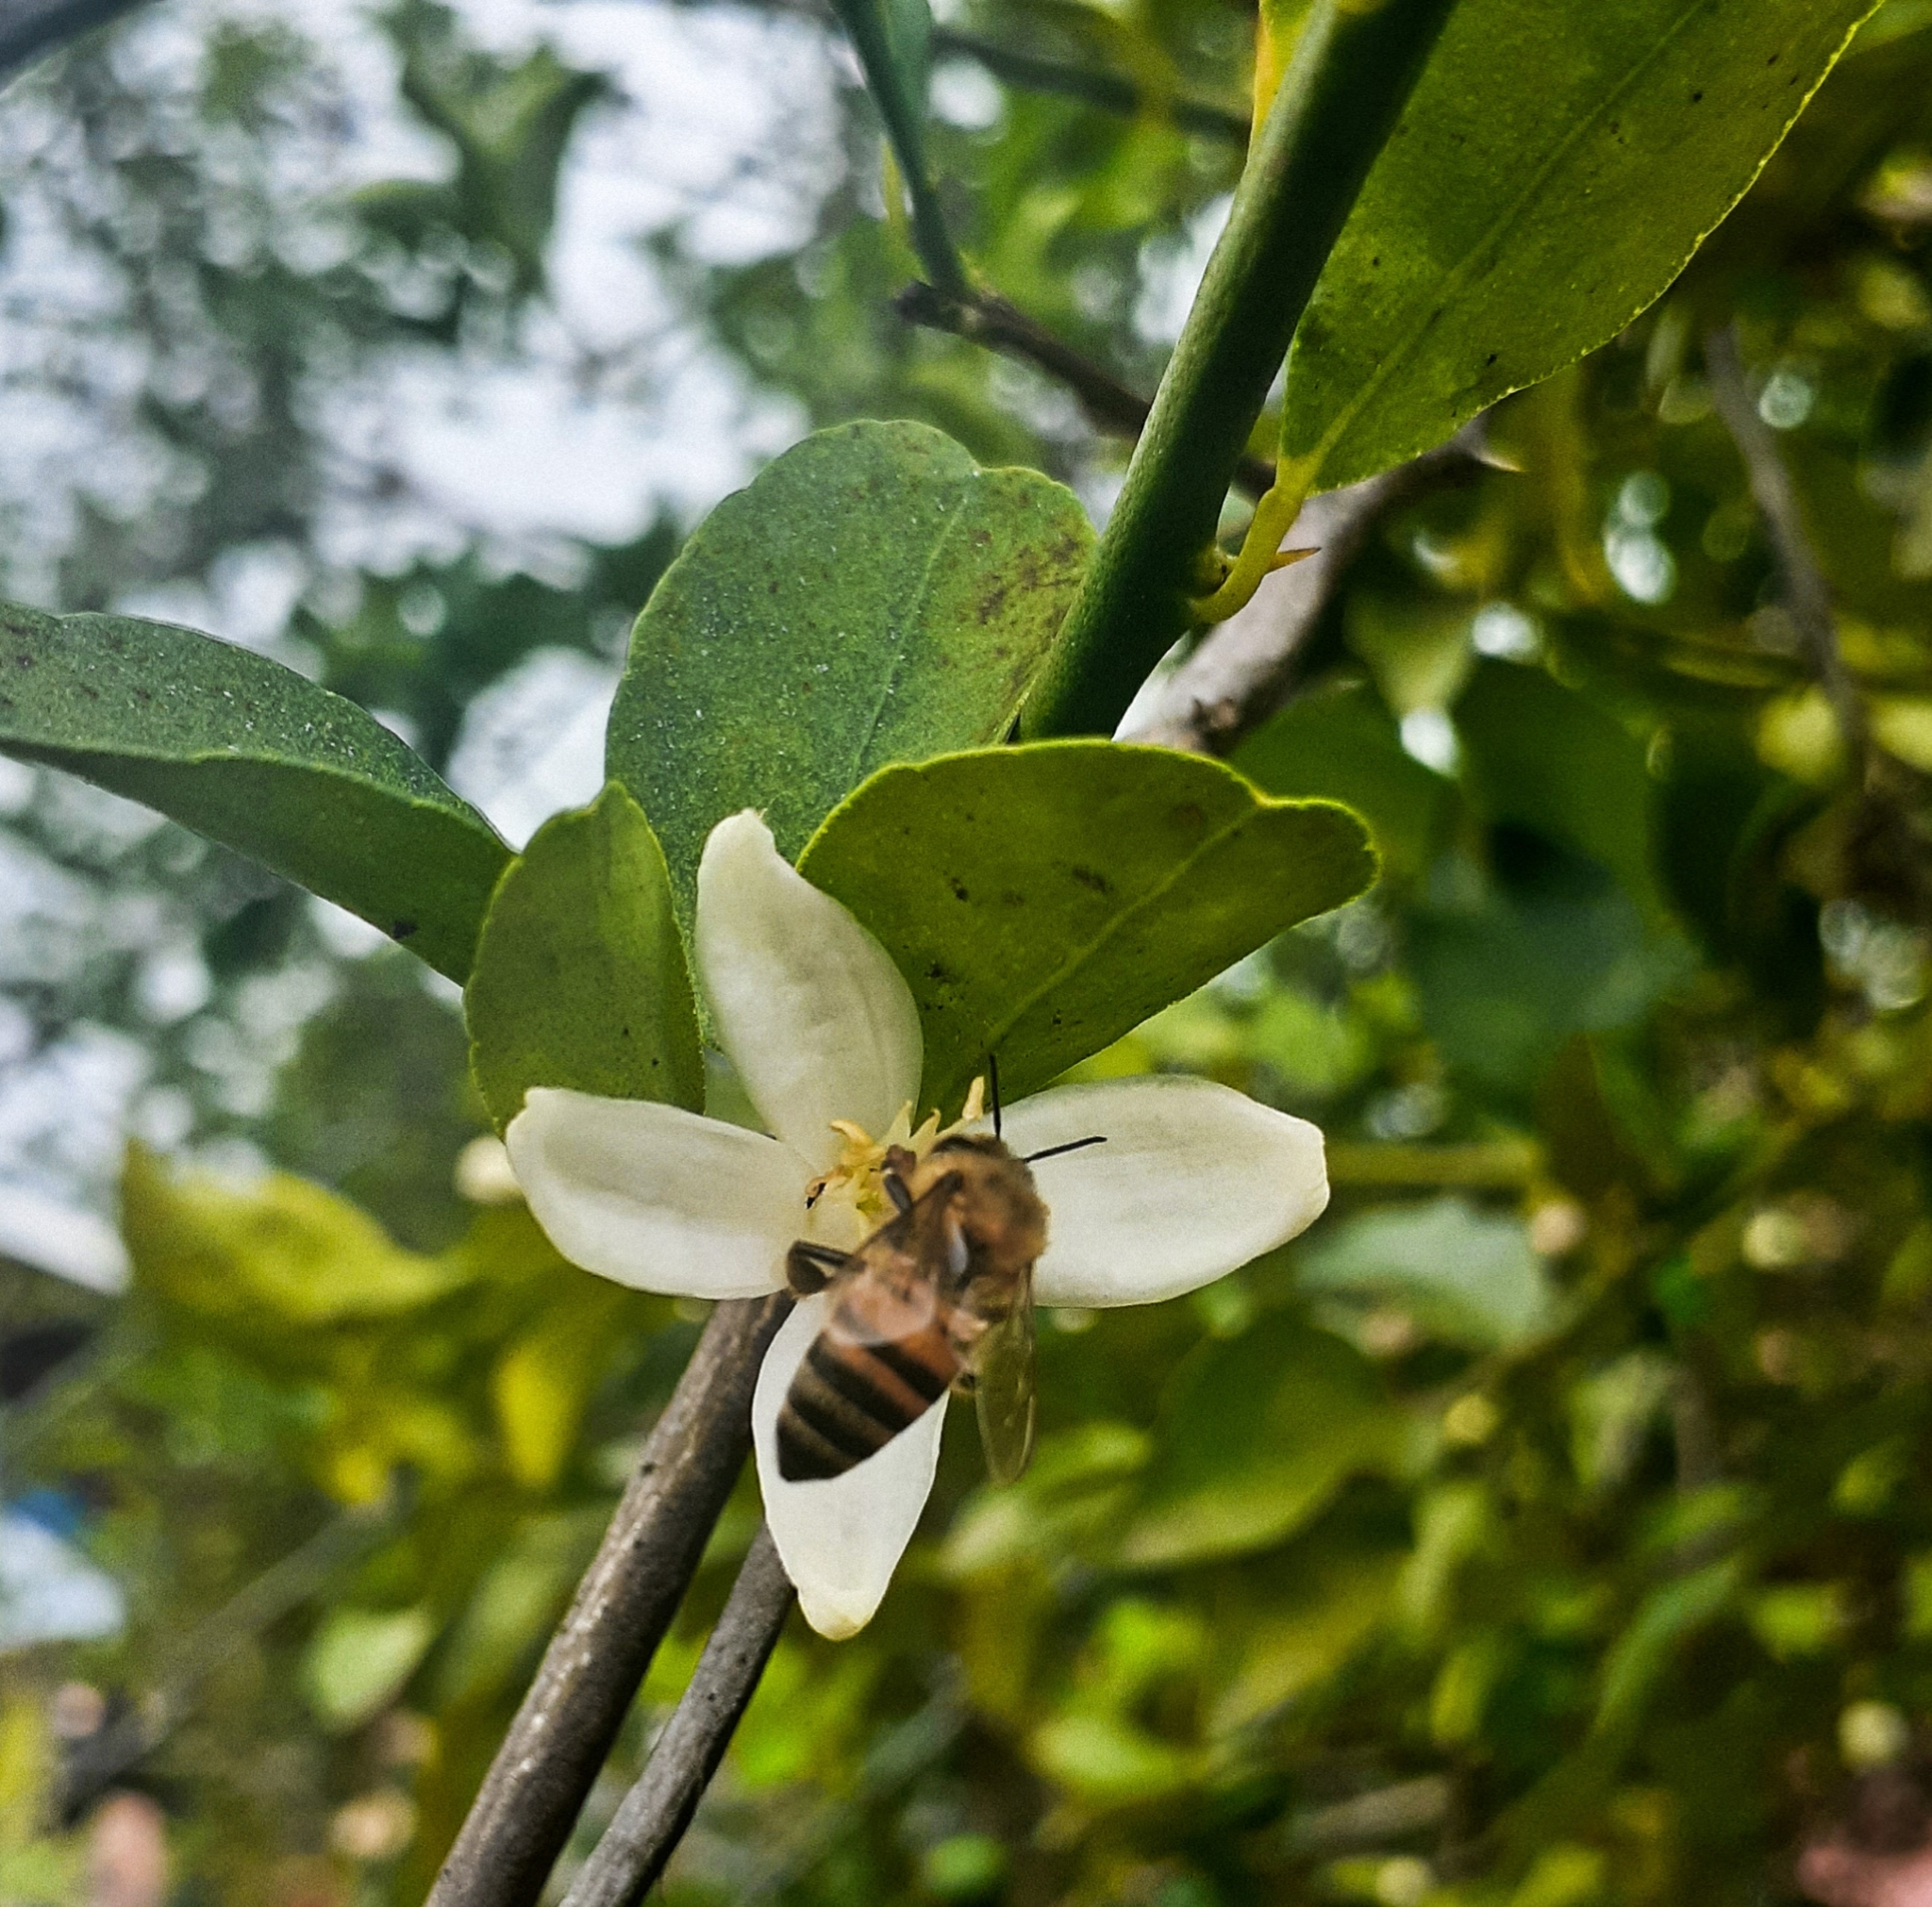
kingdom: Animalia
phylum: Arthropoda
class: Insecta
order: Hymenoptera
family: Apidae
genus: Apis
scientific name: Apis mellifera
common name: Honey bee
